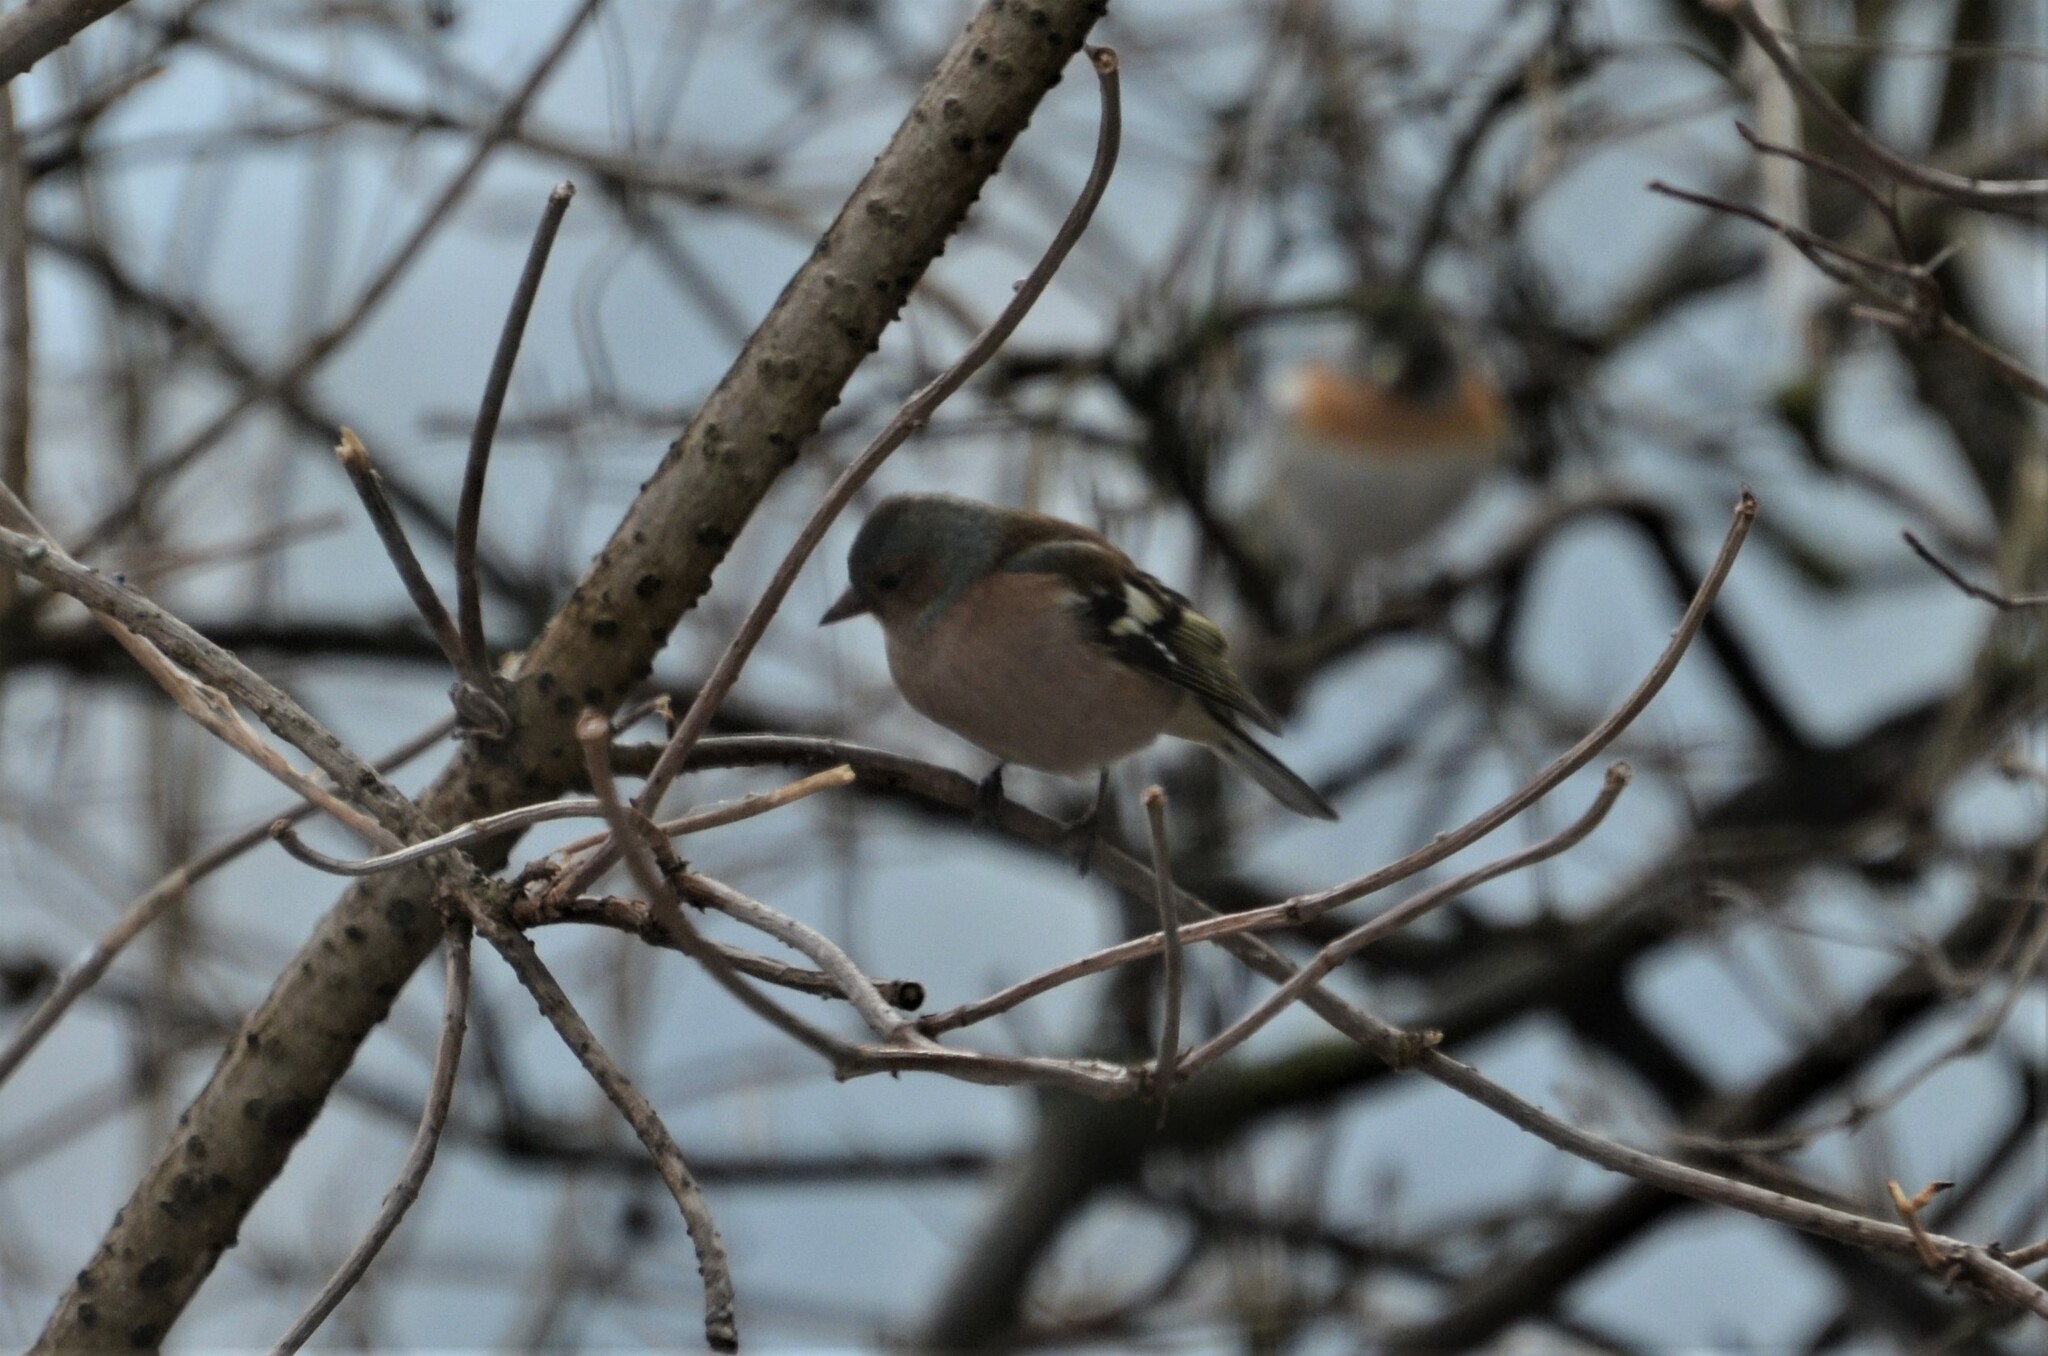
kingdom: Animalia
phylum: Chordata
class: Aves
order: Passeriformes
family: Fringillidae
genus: Fringilla
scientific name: Fringilla coelebs
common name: Common chaffinch
